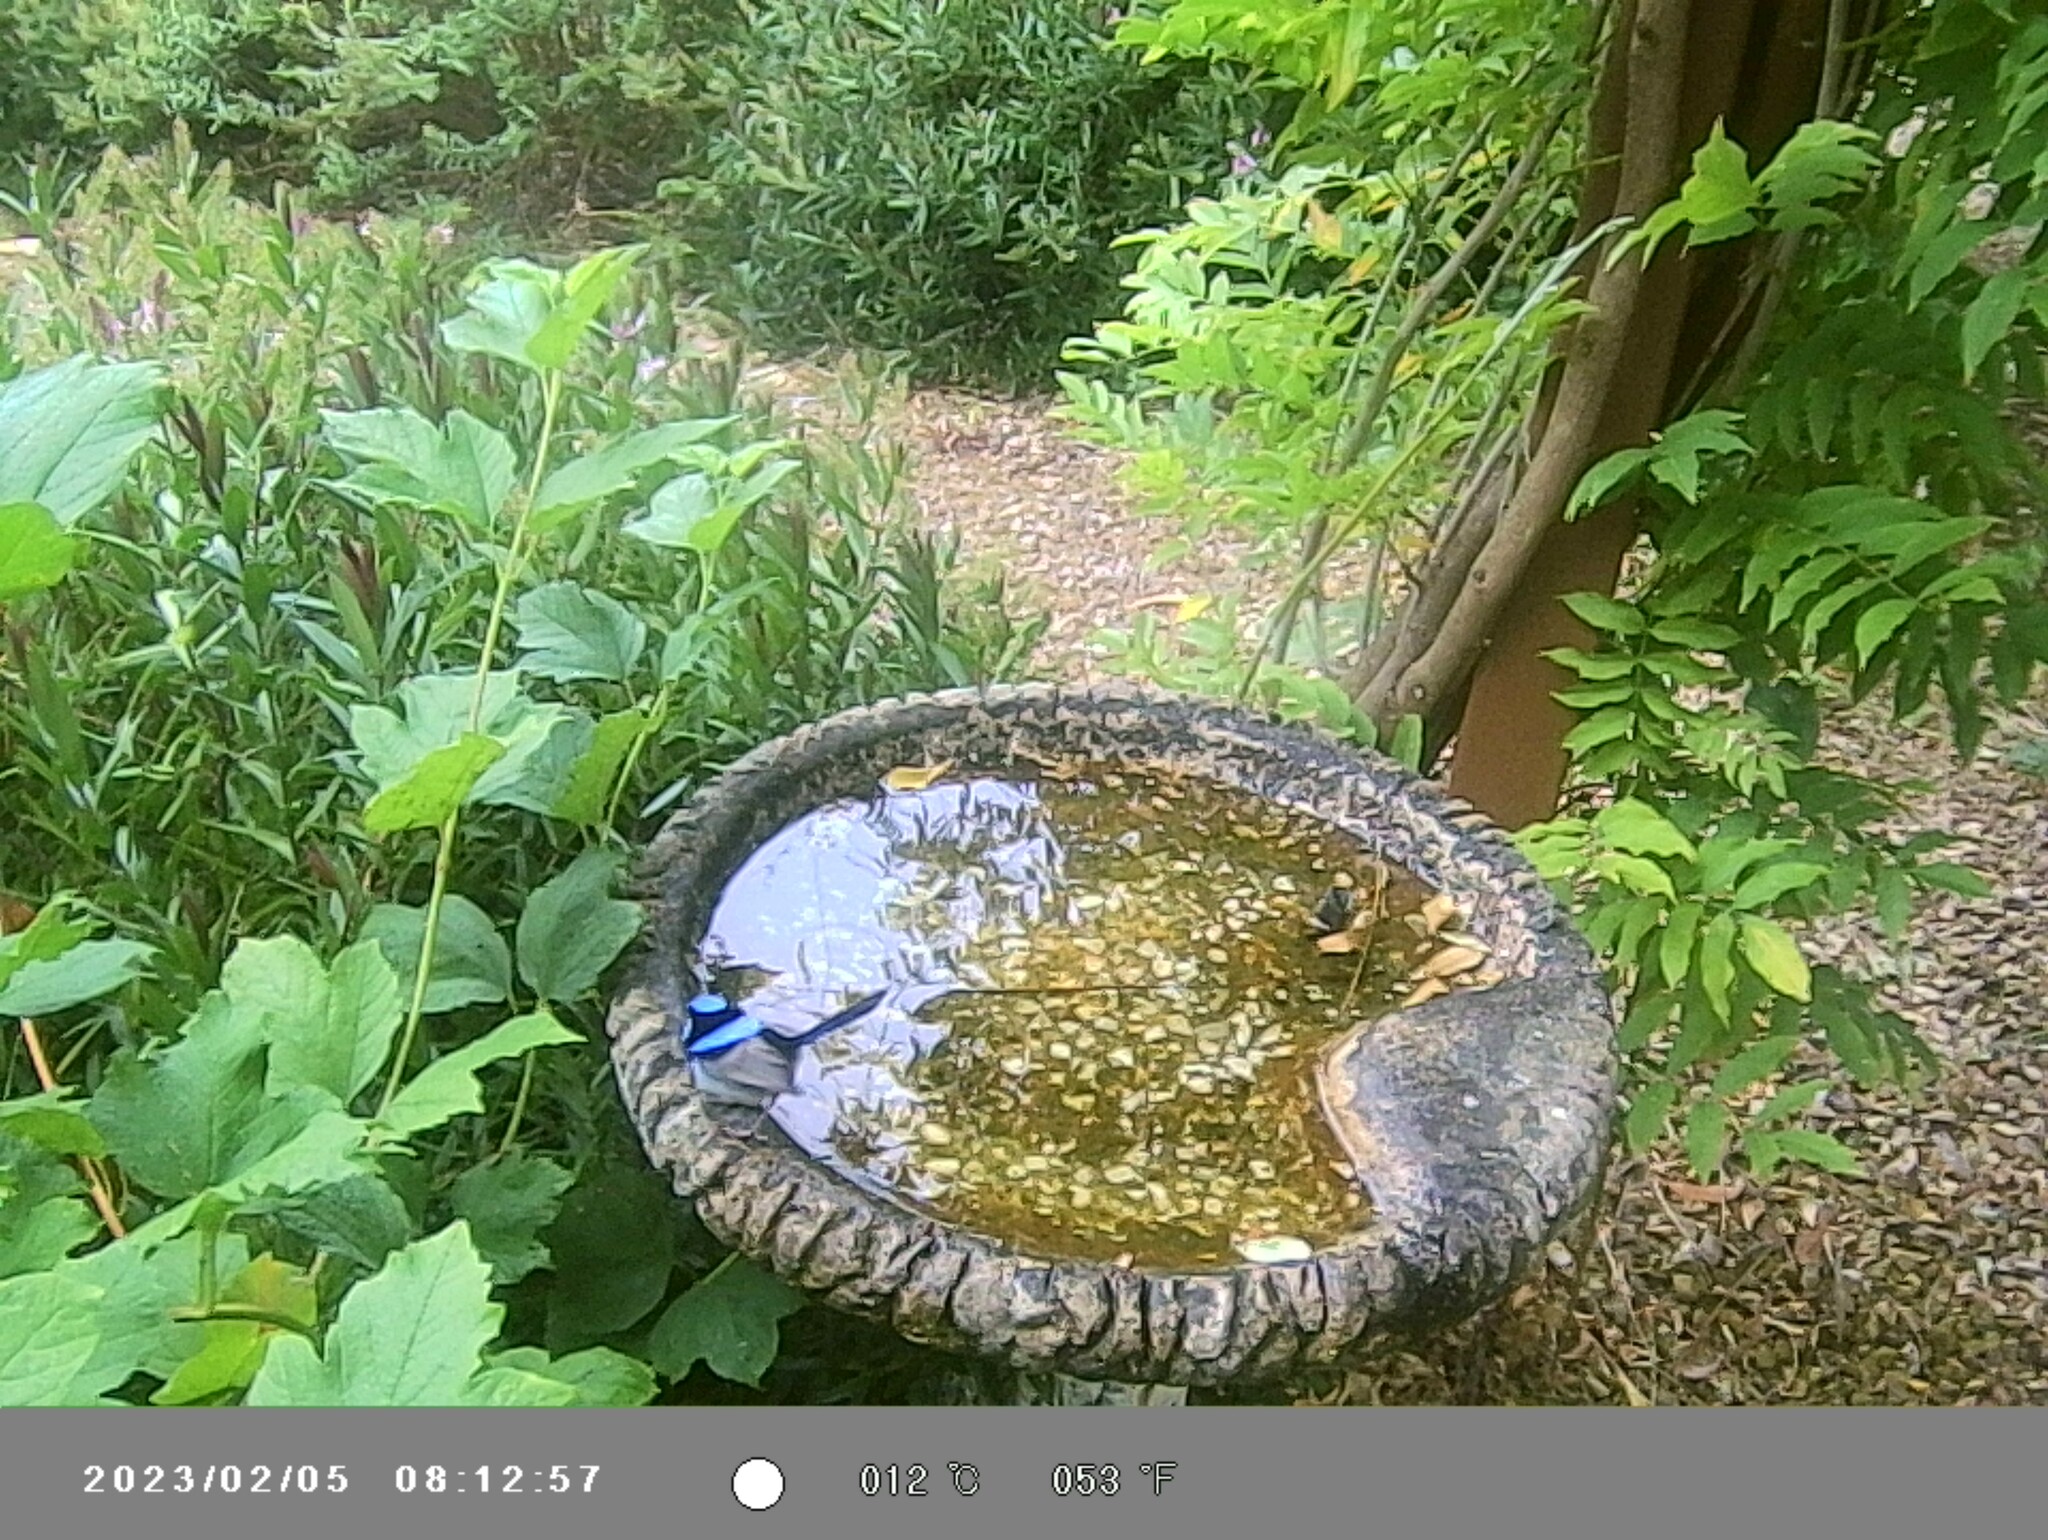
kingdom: Animalia
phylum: Chordata
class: Aves
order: Passeriformes
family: Maluridae
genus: Malurus
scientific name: Malurus cyaneus
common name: Superb fairywren
